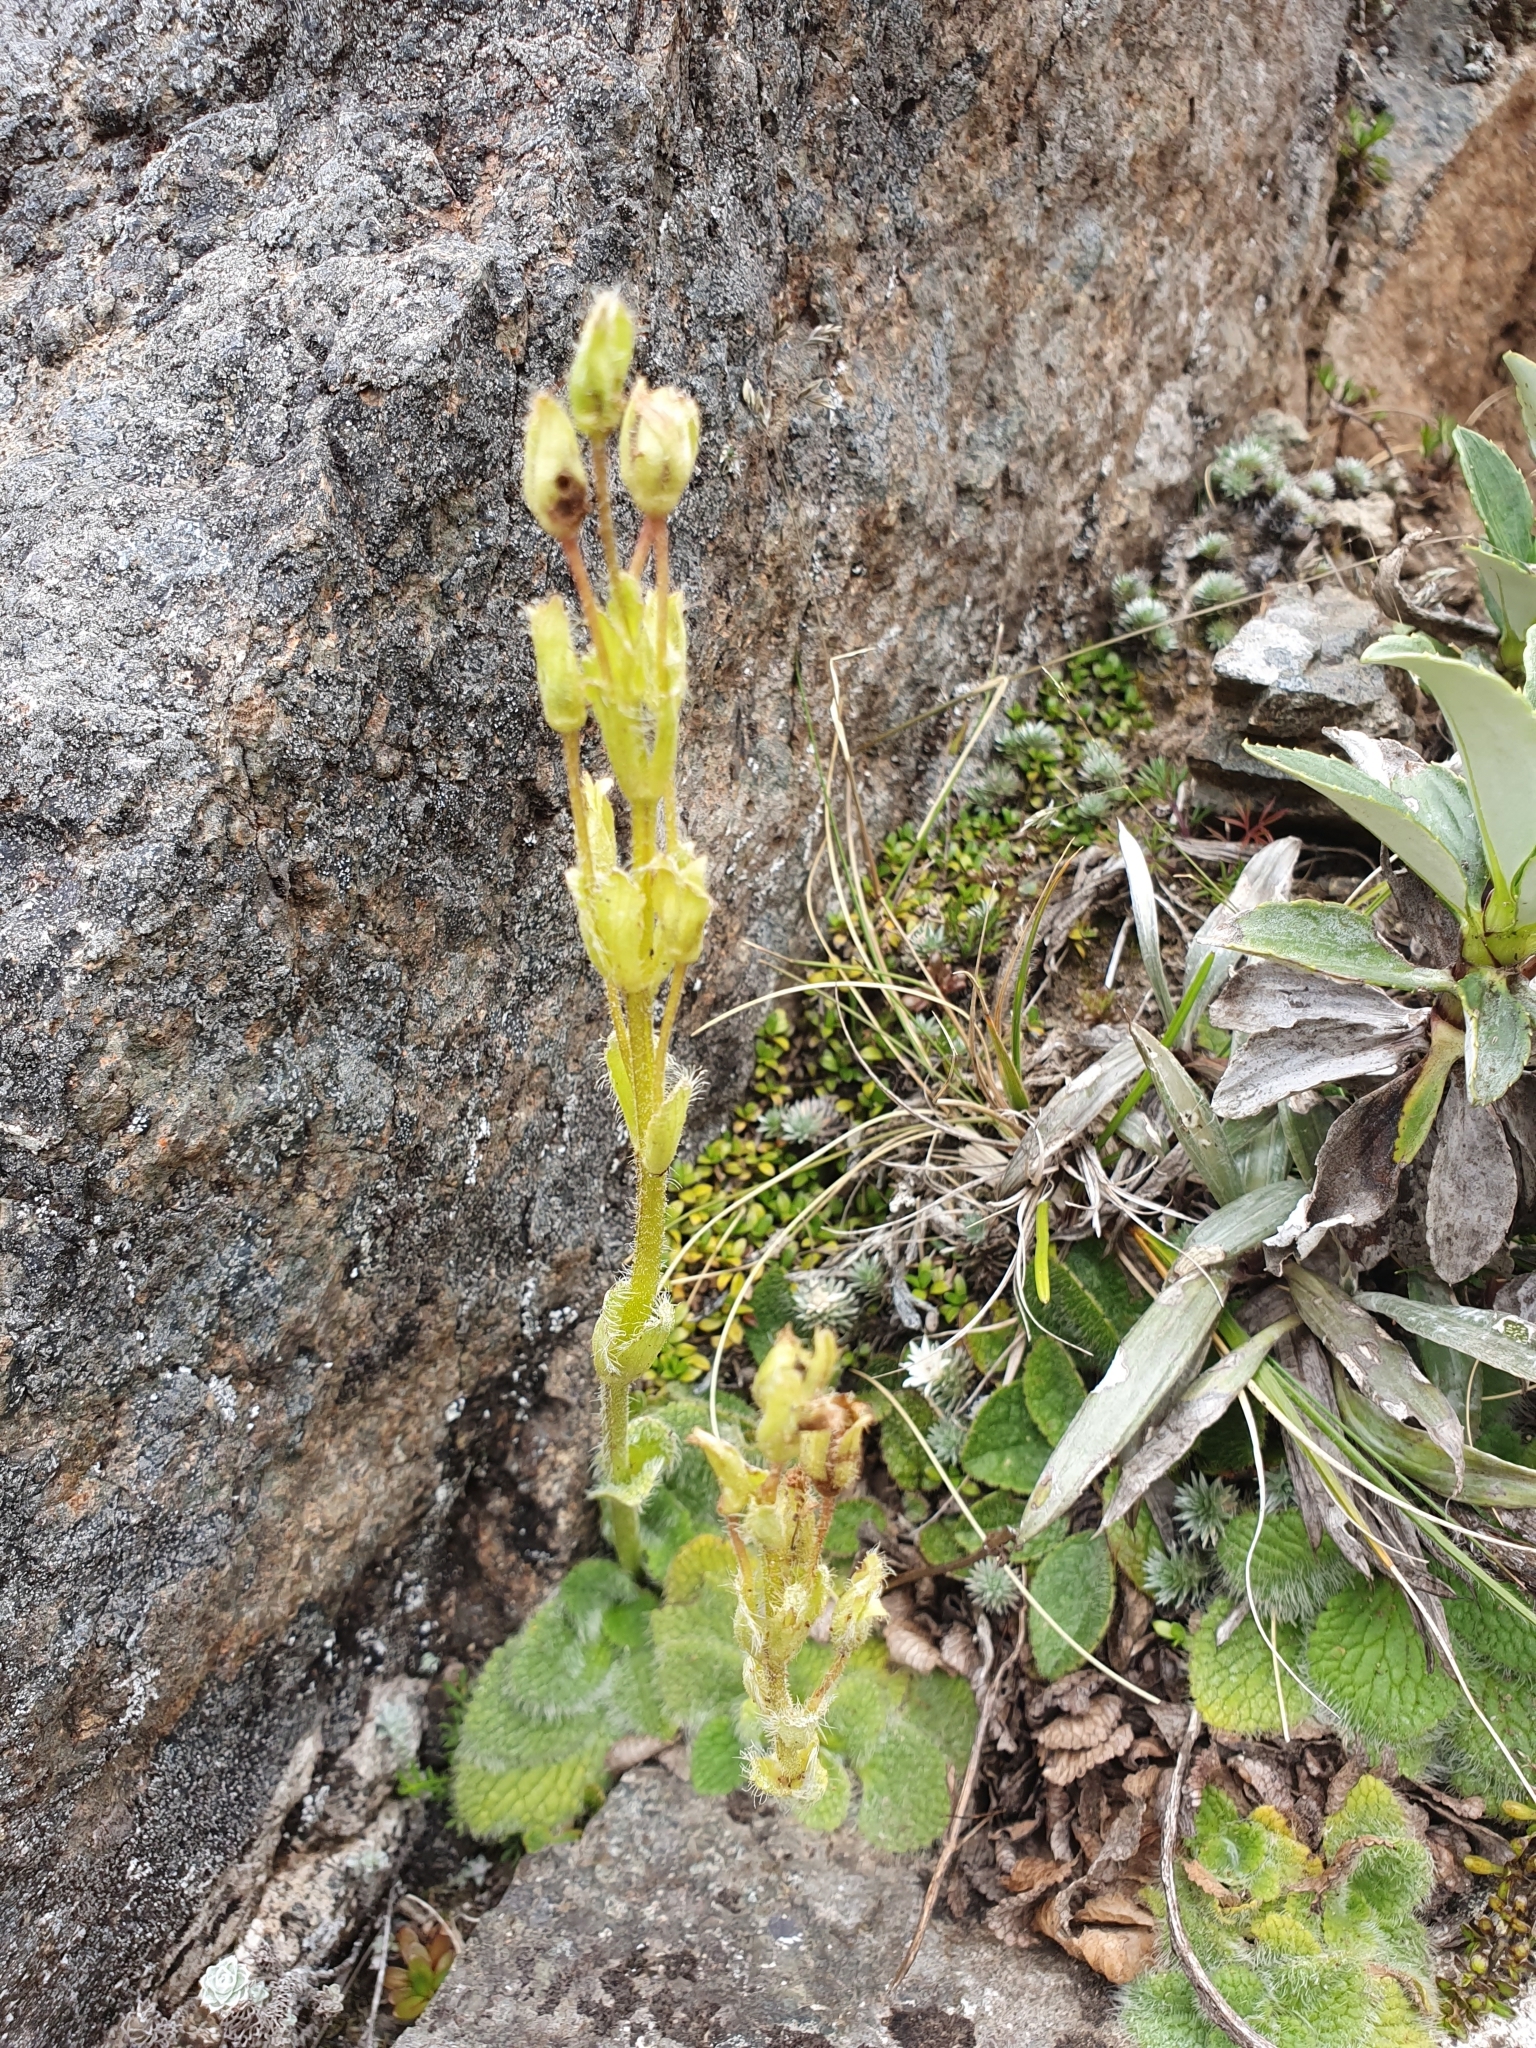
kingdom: Plantae
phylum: Tracheophyta
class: Magnoliopsida
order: Lamiales
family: Plantaginaceae
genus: Ourisia
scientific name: Ourisia sessilifolia
